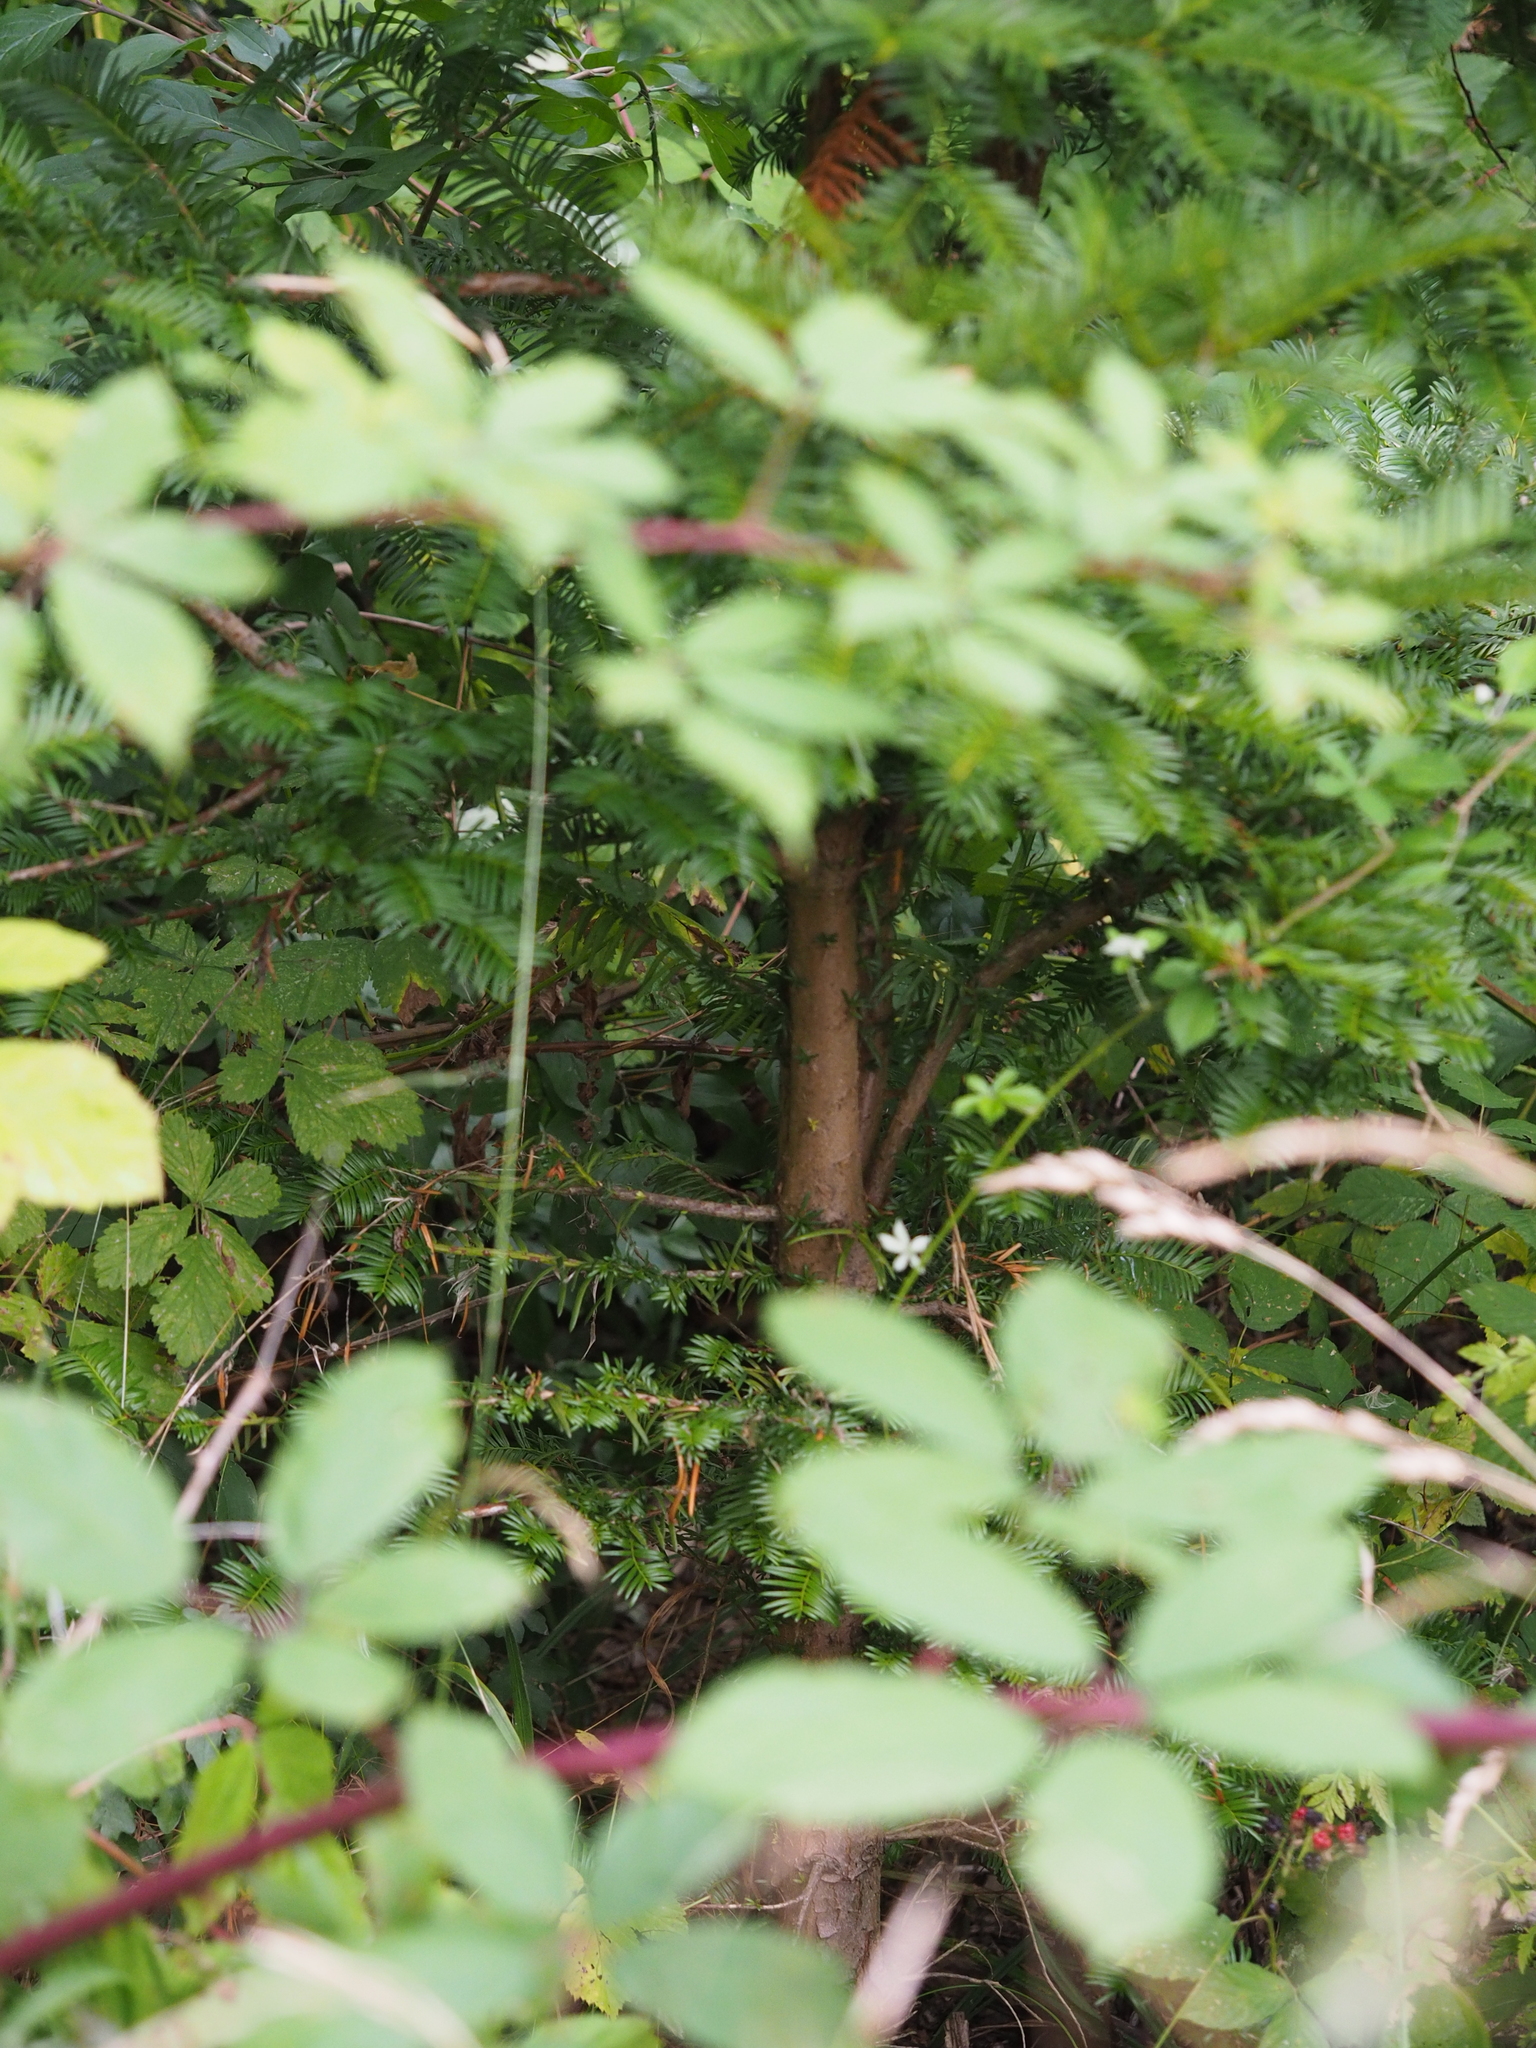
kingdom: Plantae
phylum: Tracheophyta
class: Pinopsida
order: Pinales
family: Taxaceae
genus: Taxus
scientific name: Taxus baccata
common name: Yew
